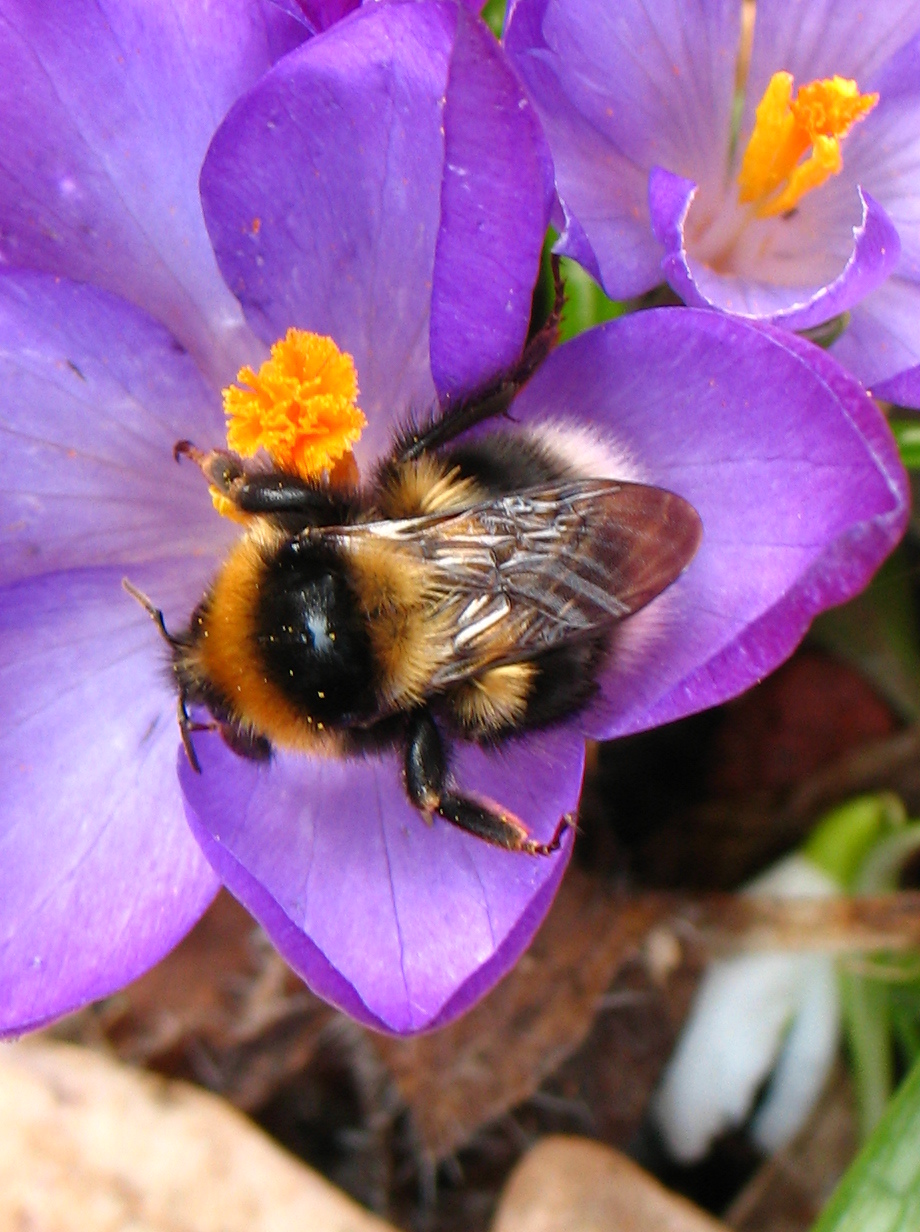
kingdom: Animalia
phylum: Arthropoda
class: Insecta
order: Hymenoptera
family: Apidae
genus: Bombus
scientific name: Bombus hortorum
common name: Garden bumblebee
